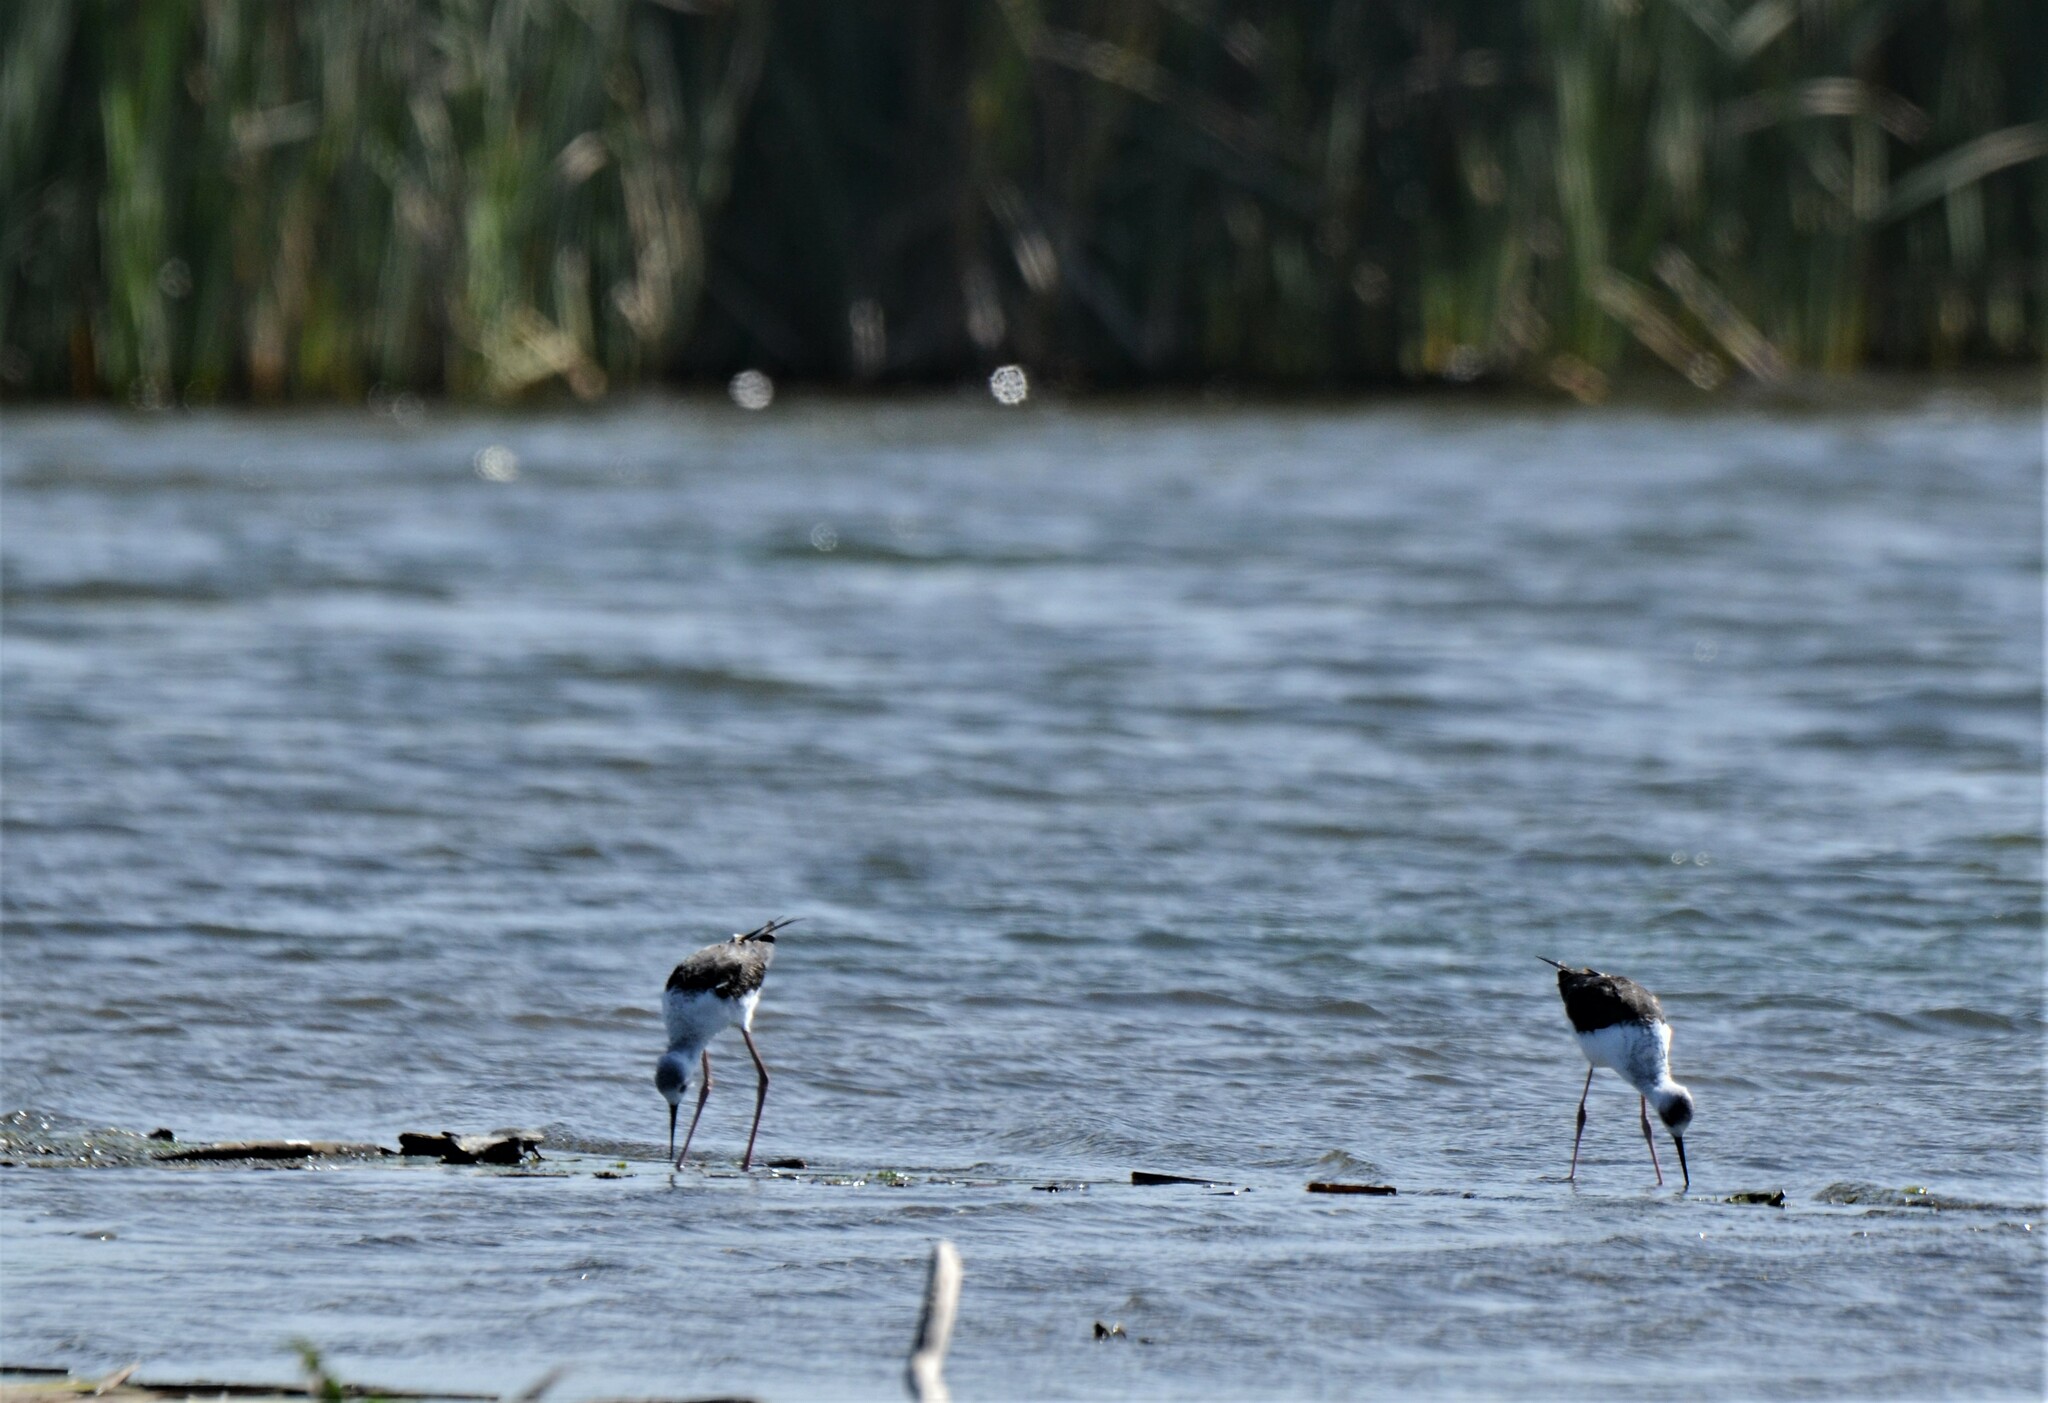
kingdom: Animalia
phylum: Chordata
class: Aves
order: Charadriiformes
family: Recurvirostridae
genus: Himantopus
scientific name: Himantopus leucocephalus
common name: White-headed stilt
